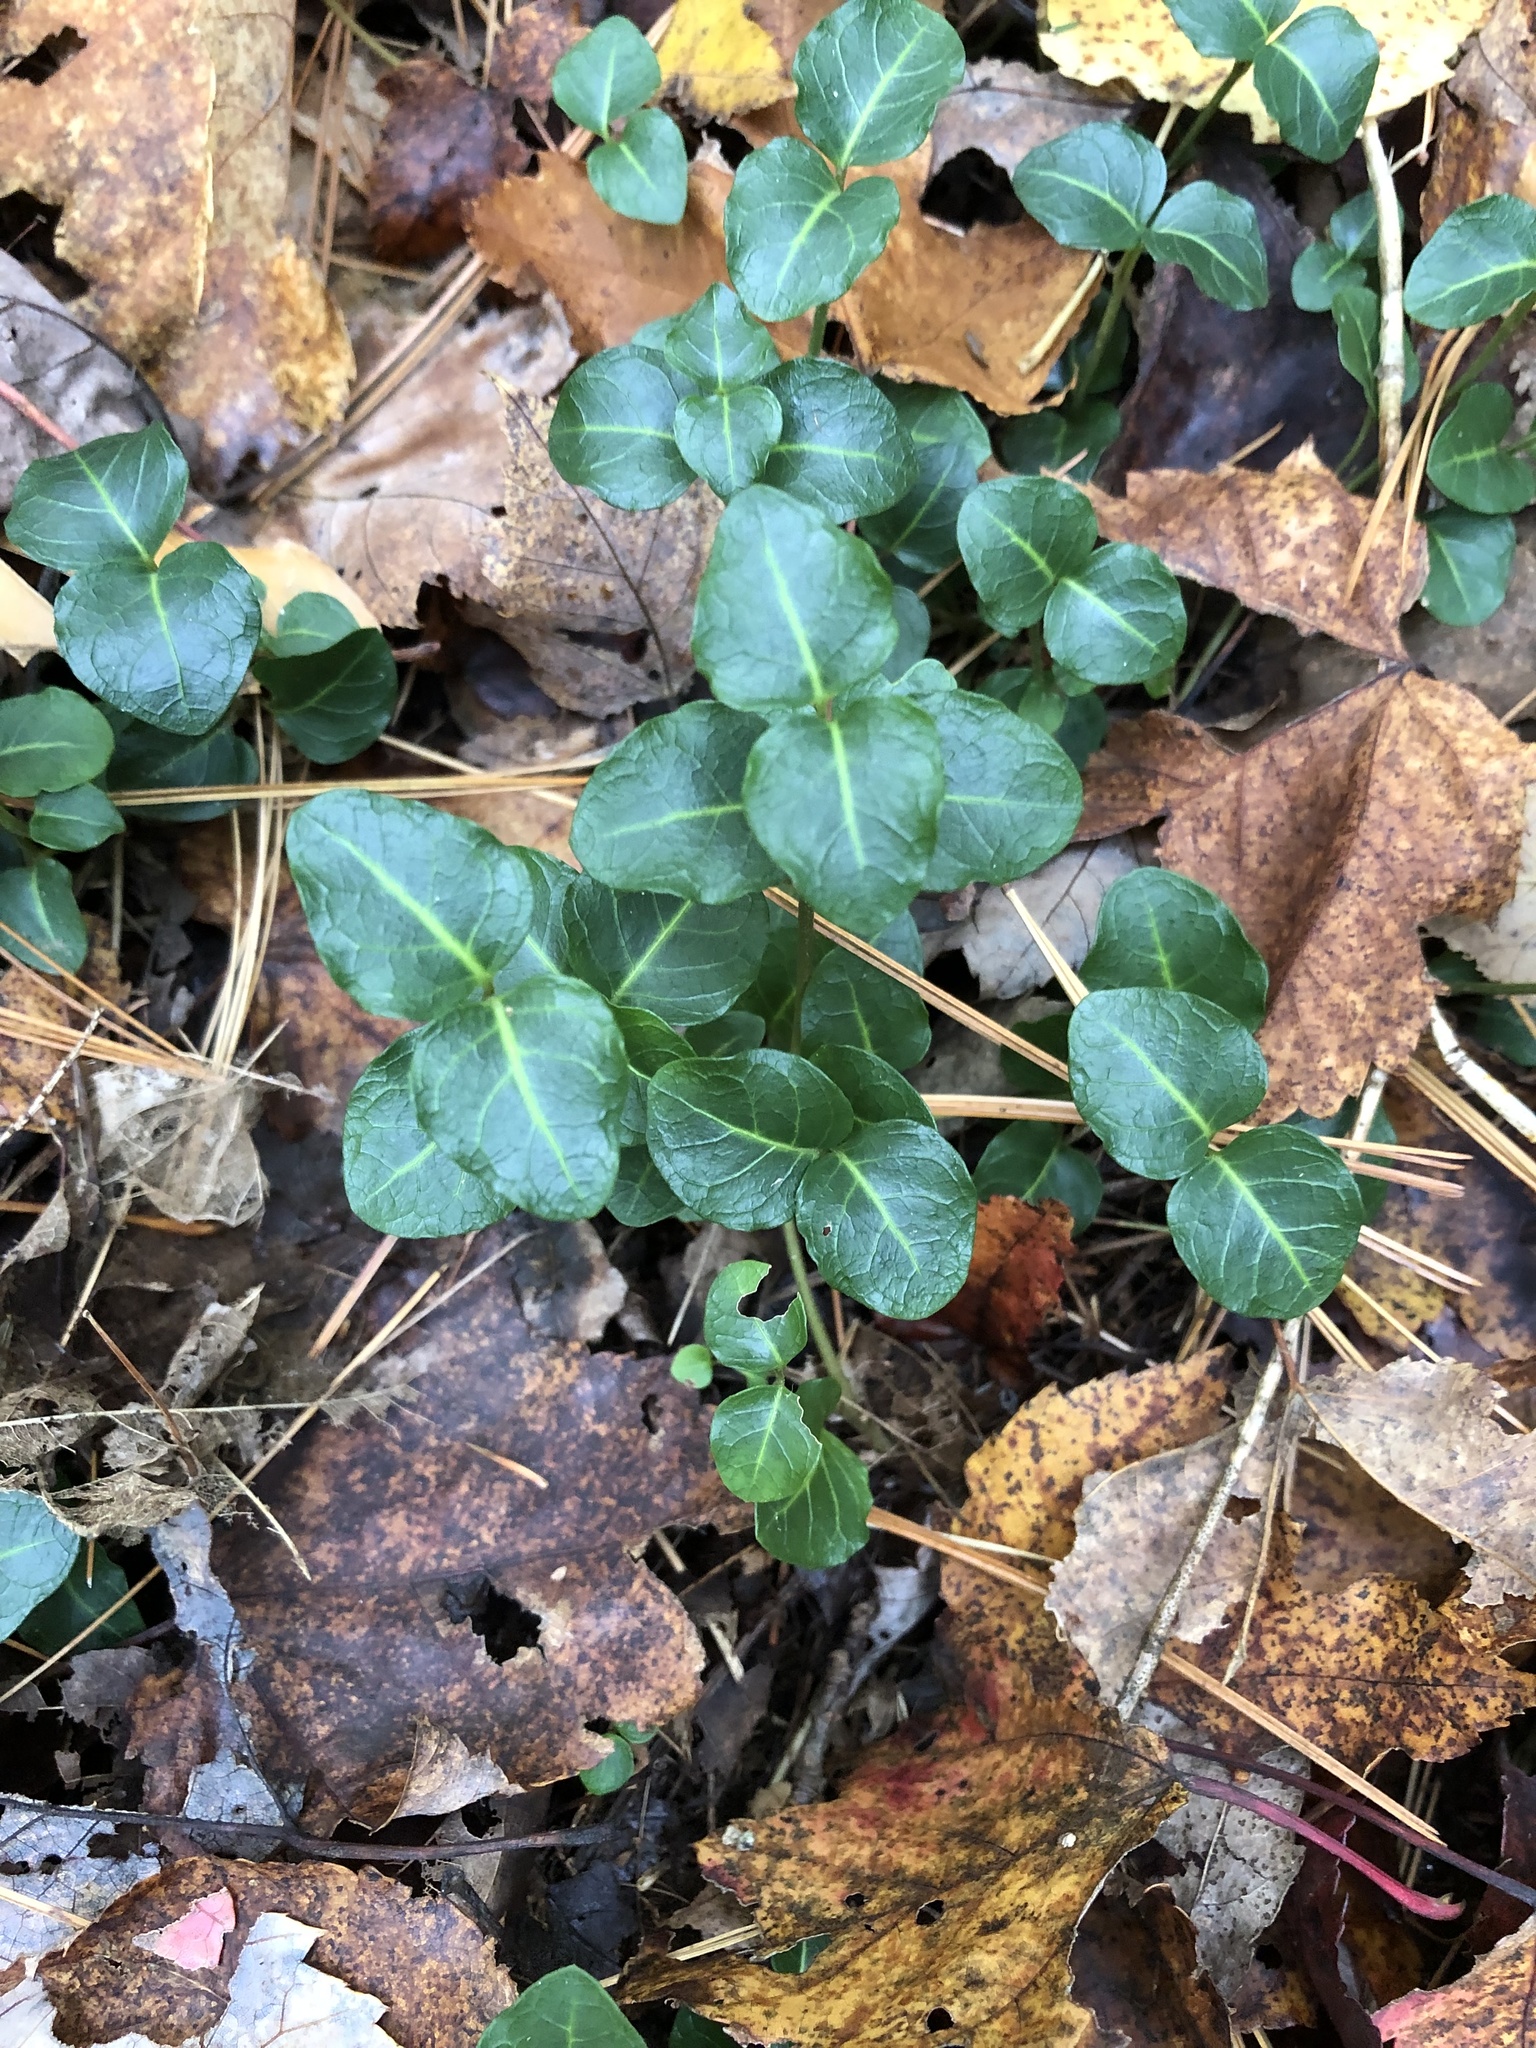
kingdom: Plantae
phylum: Tracheophyta
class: Magnoliopsida
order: Gentianales
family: Rubiaceae
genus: Mitchella
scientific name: Mitchella repens
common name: Partridge-berry
